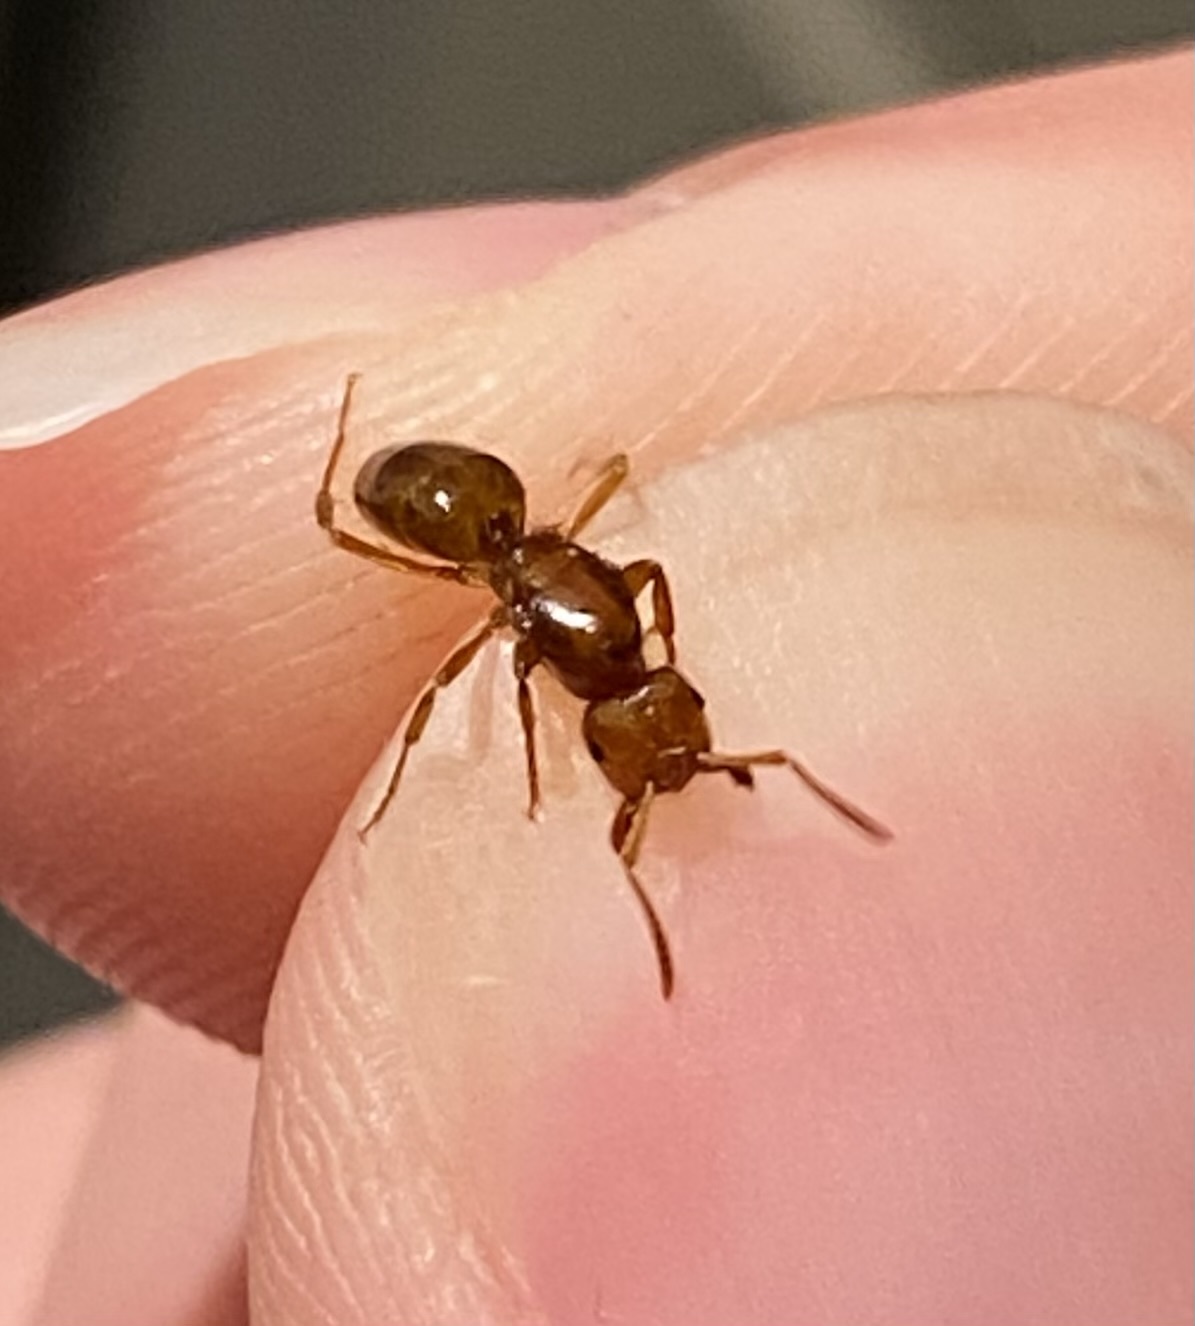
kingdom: Animalia
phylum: Arthropoda
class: Insecta
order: Hymenoptera
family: Formicidae
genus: Acanthomyops
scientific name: Acanthomyops interjectus
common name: Larger yellow ant
